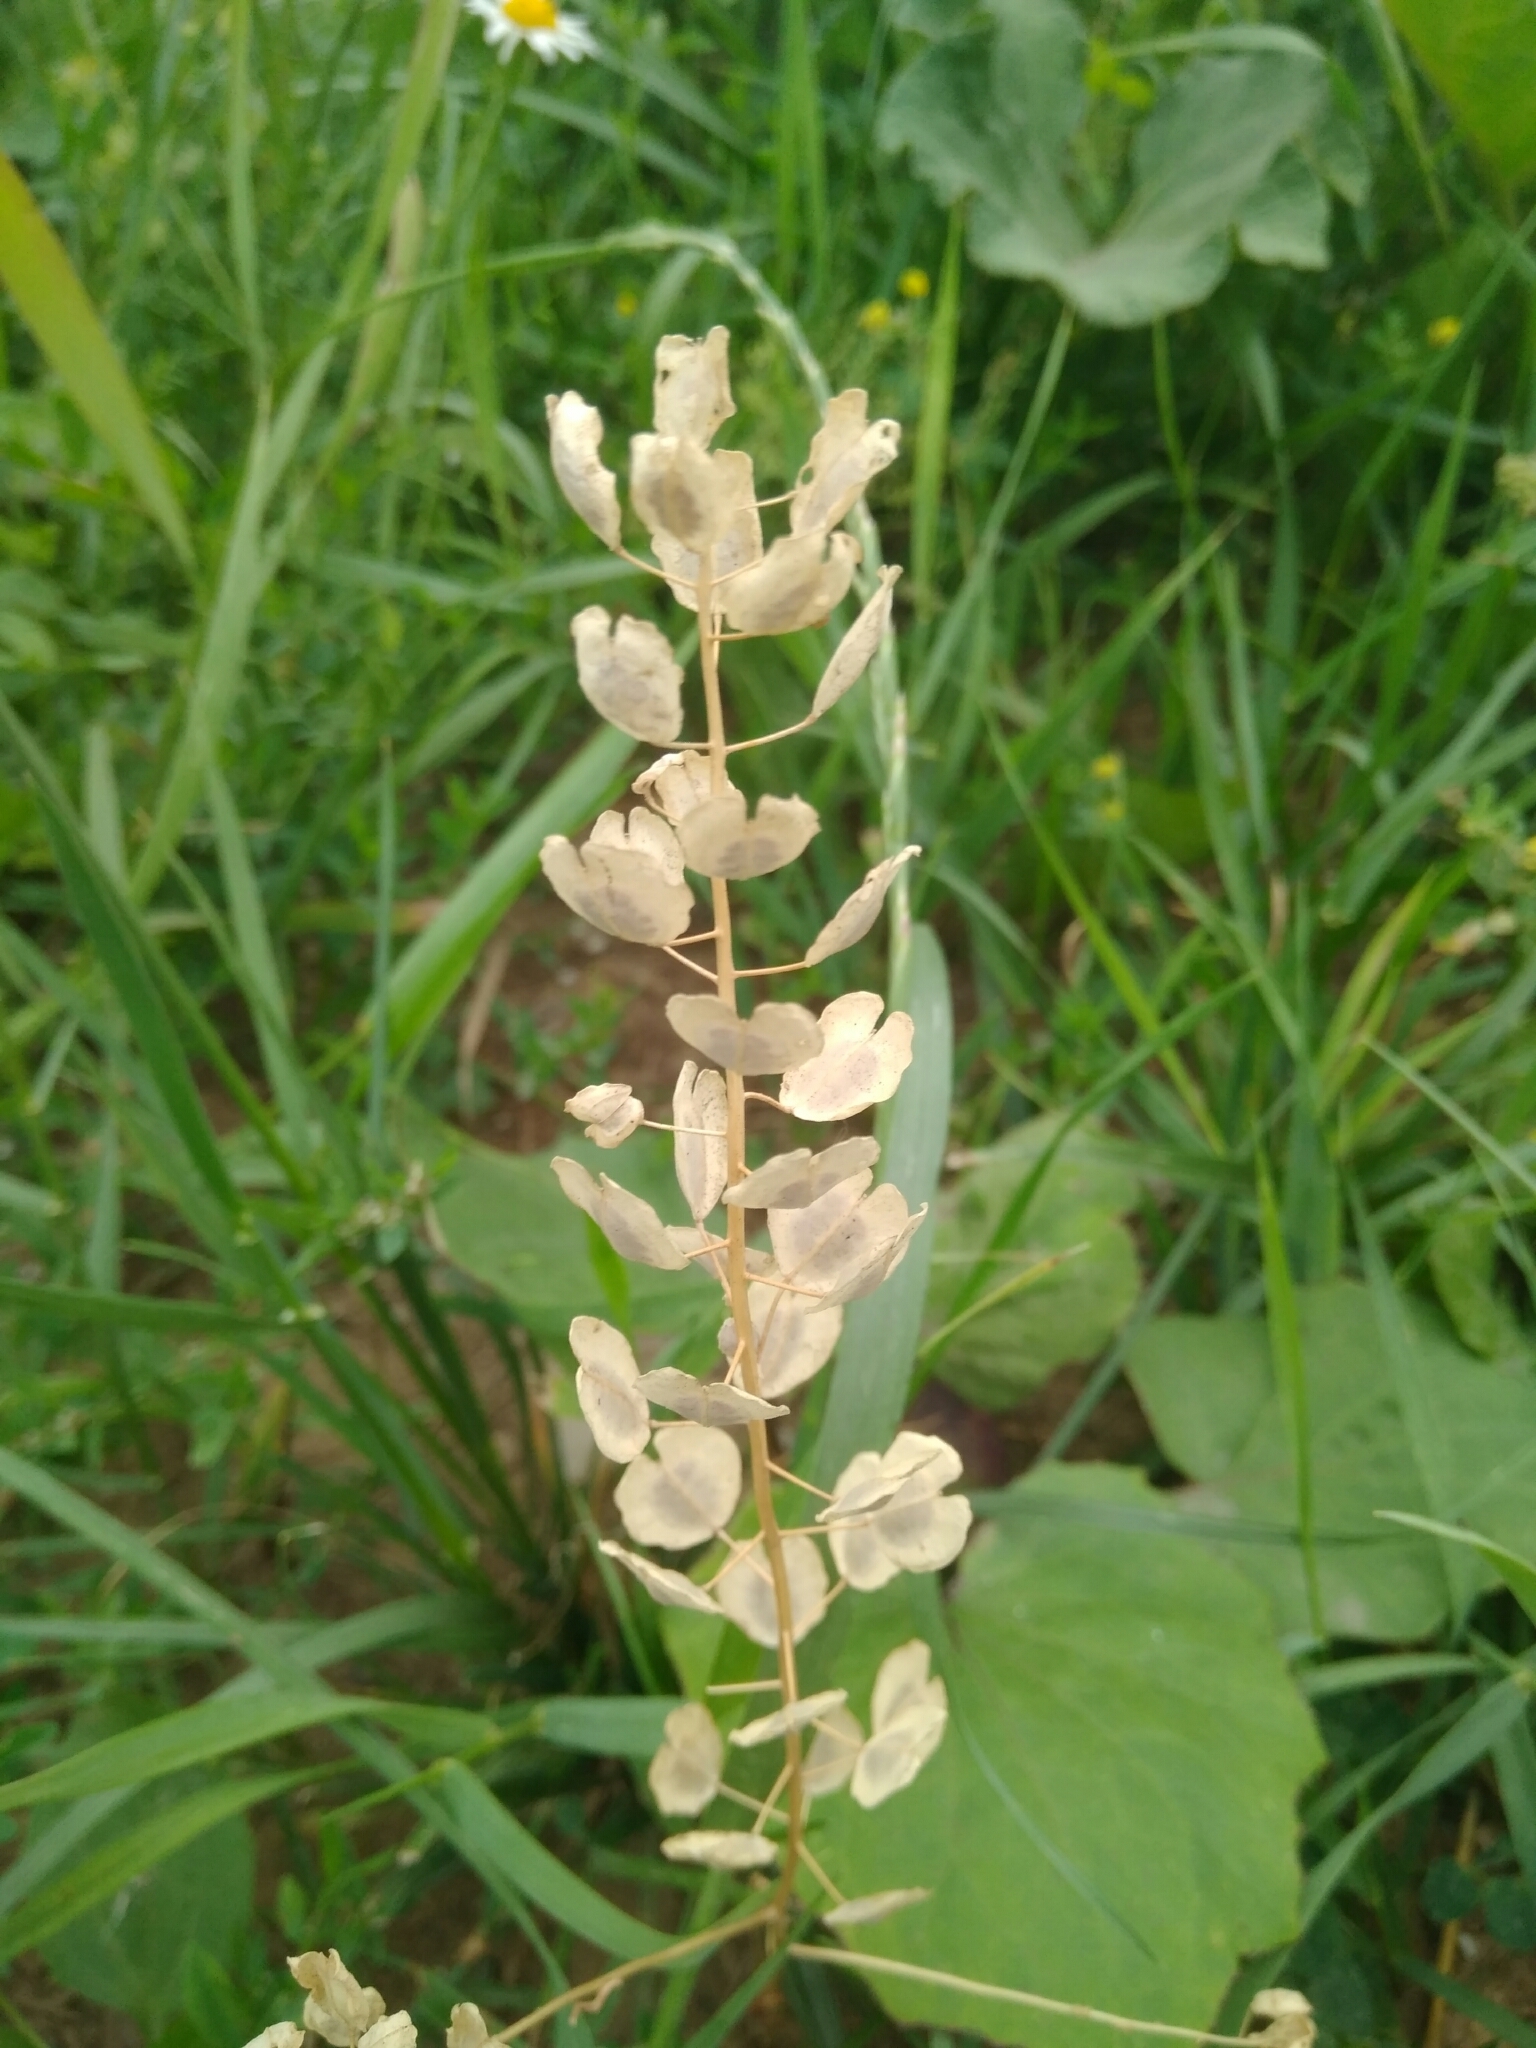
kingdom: Plantae
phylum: Tracheophyta
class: Magnoliopsida
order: Brassicales
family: Brassicaceae
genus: Thlaspi
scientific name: Thlaspi arvense
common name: Field pennycress
